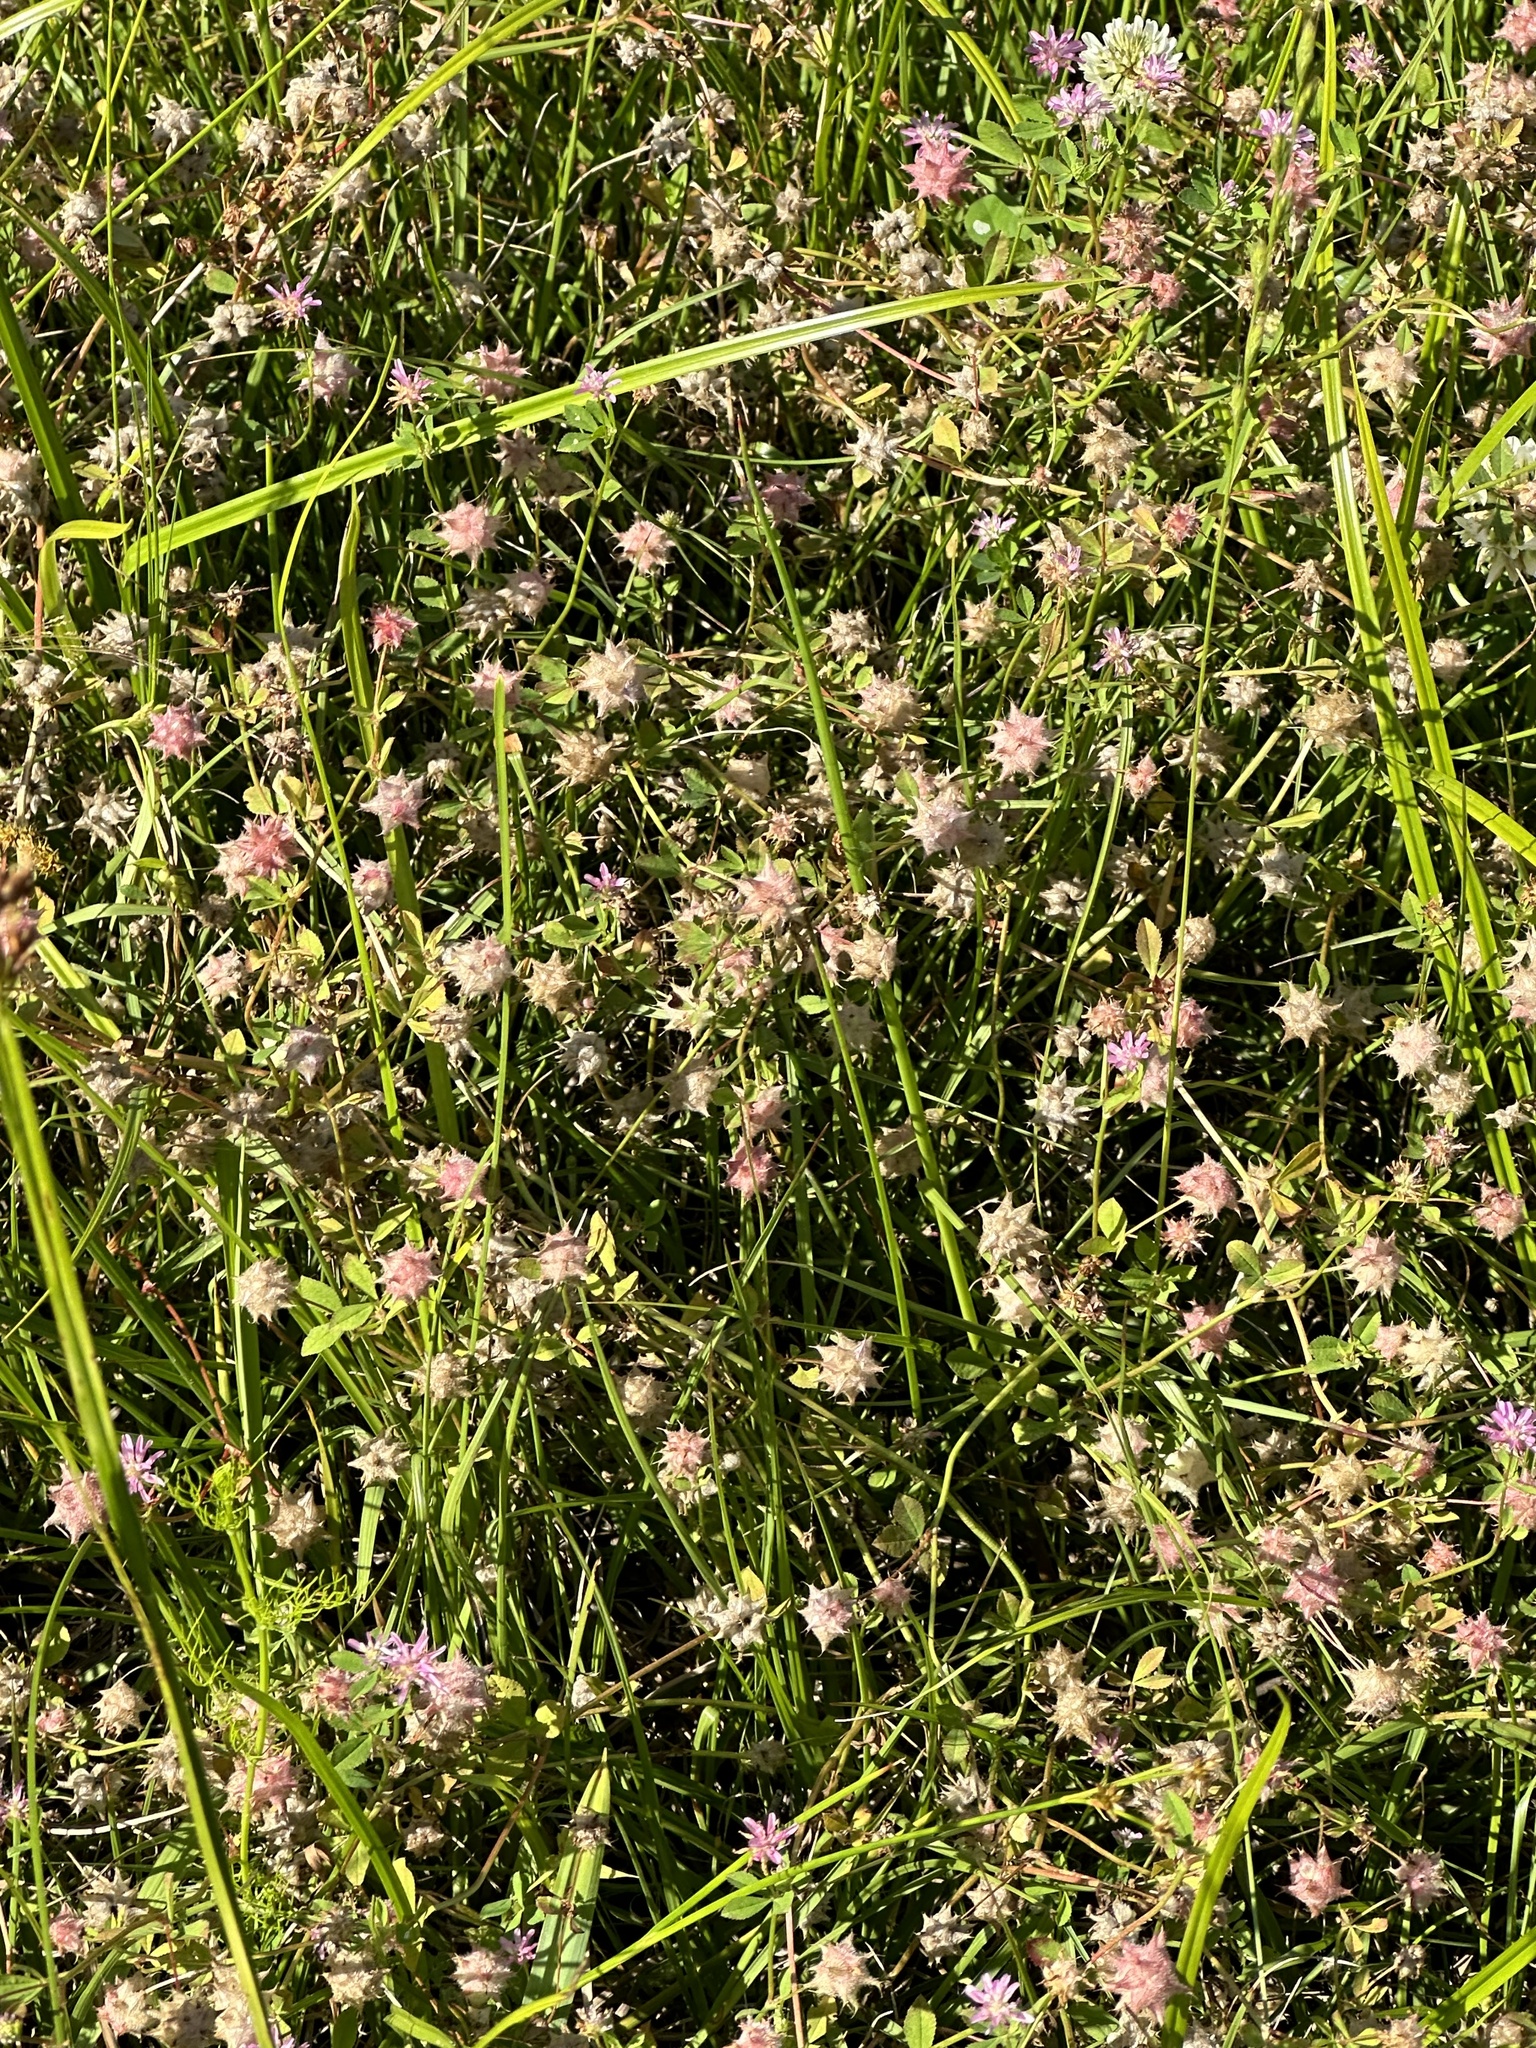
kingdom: Plantae
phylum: Tracheophyta
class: Magnoliopsida
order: Fabales
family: Fabaceae
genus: Trifolium
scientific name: Trifolium resupinatum
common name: Reversed clover
